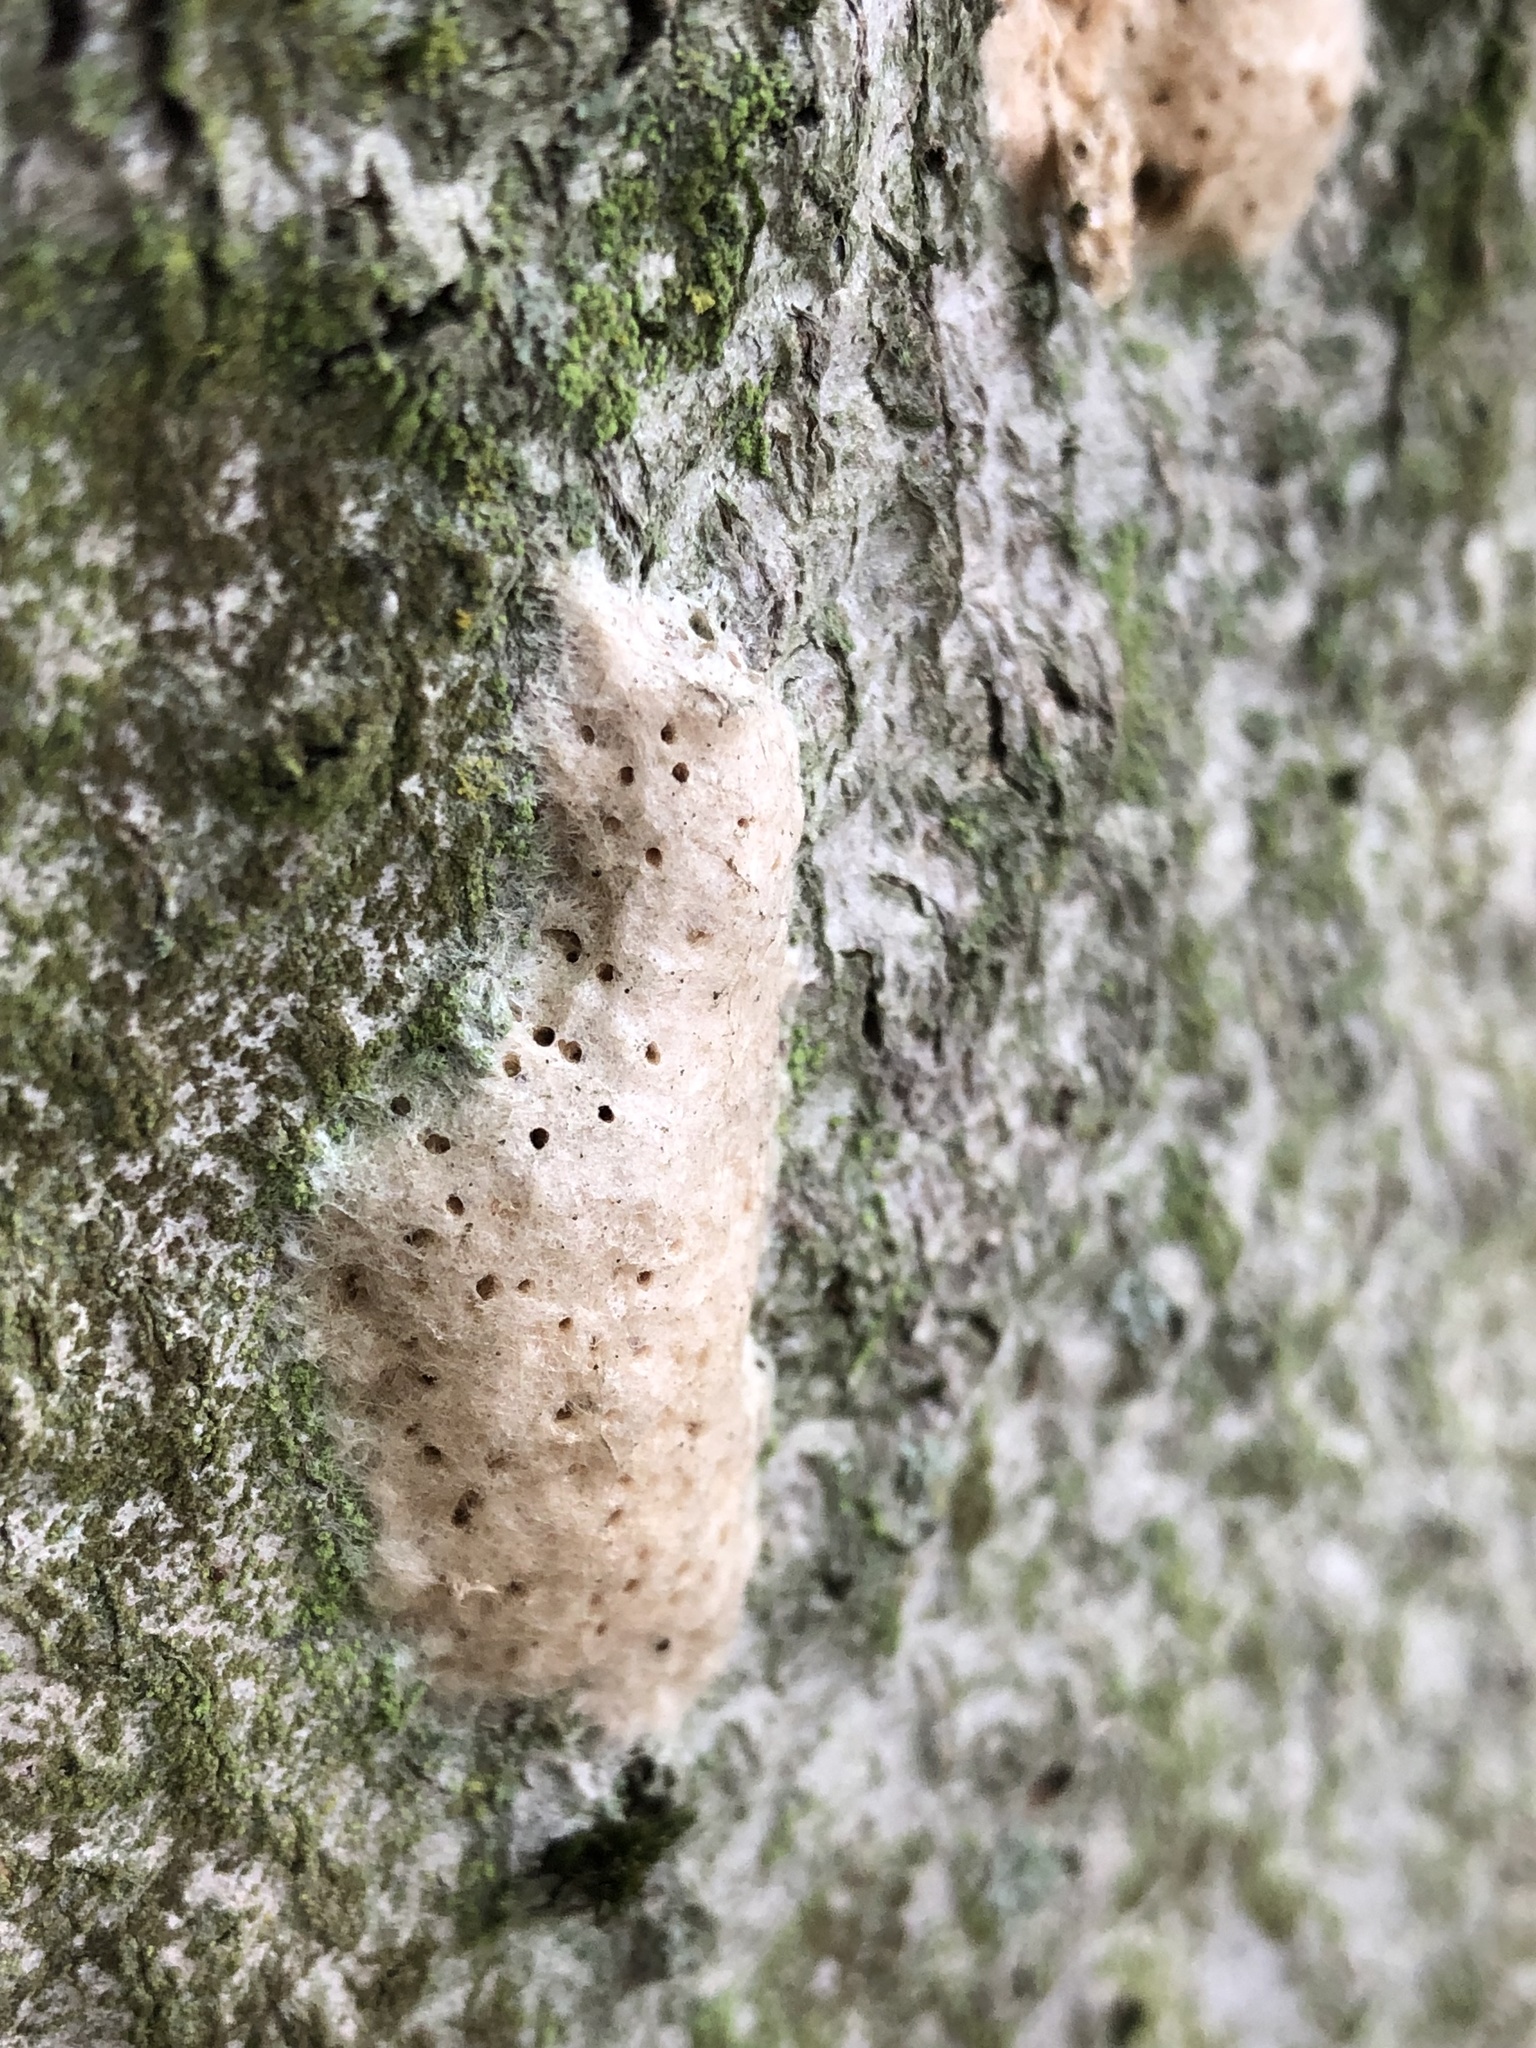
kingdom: Animalia
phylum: Arthropoda
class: Insecta
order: Lepidoptera
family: Erebidae
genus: Lymantria
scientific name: Lymantria dispar
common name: Gypsy moth
